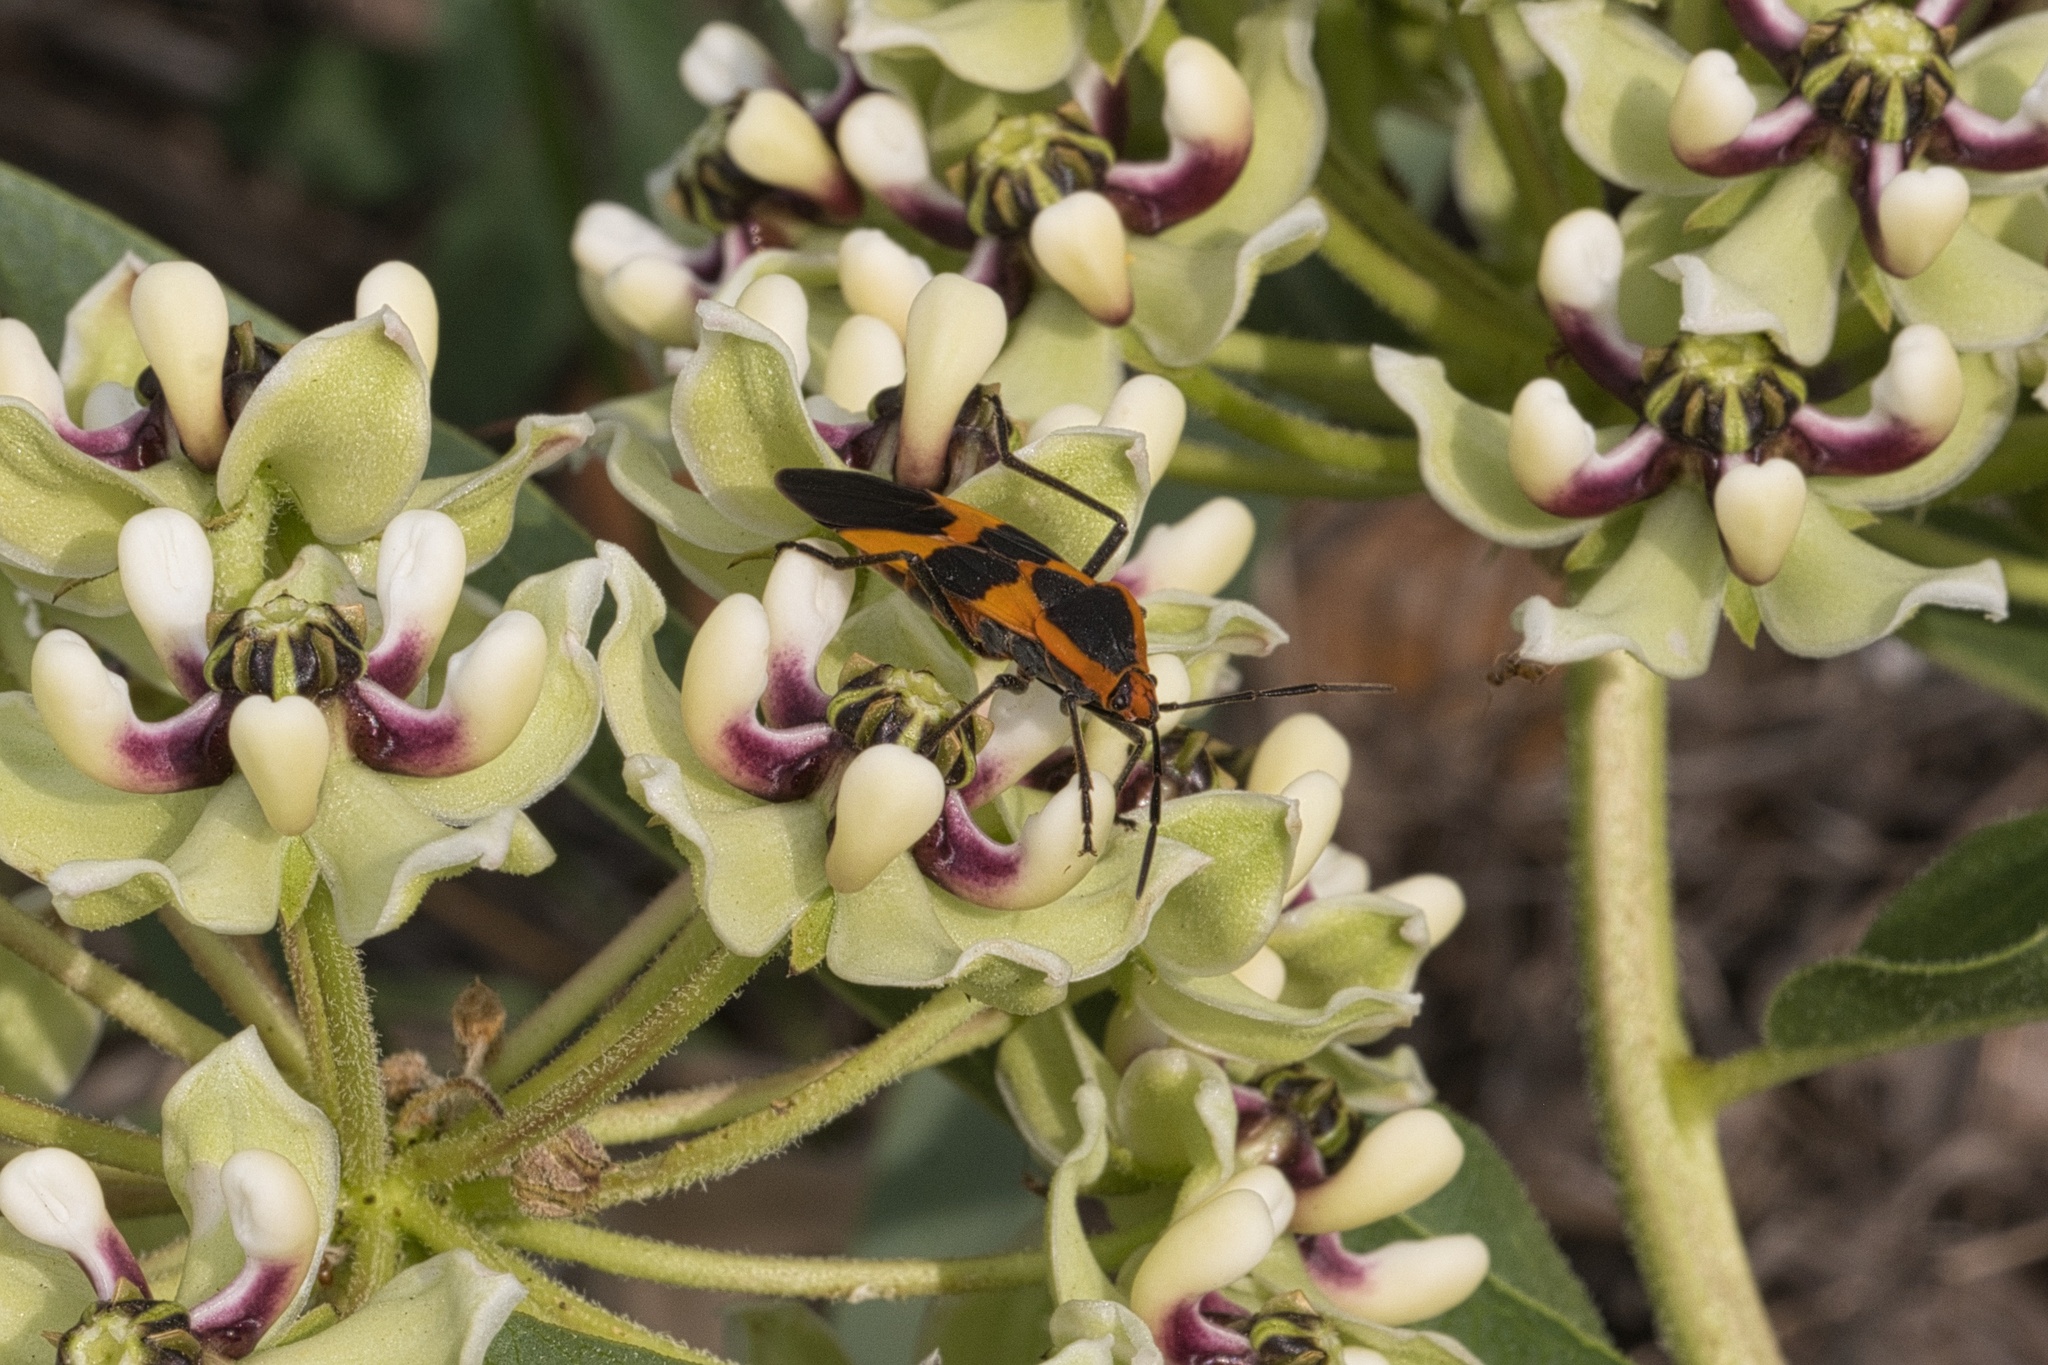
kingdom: Animalia
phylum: Arthropoda
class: Insecta
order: Hemiptera
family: Lygaeidae
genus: Oncopeltus
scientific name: Oncopeltus fasciatus
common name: Large milkweed bug
